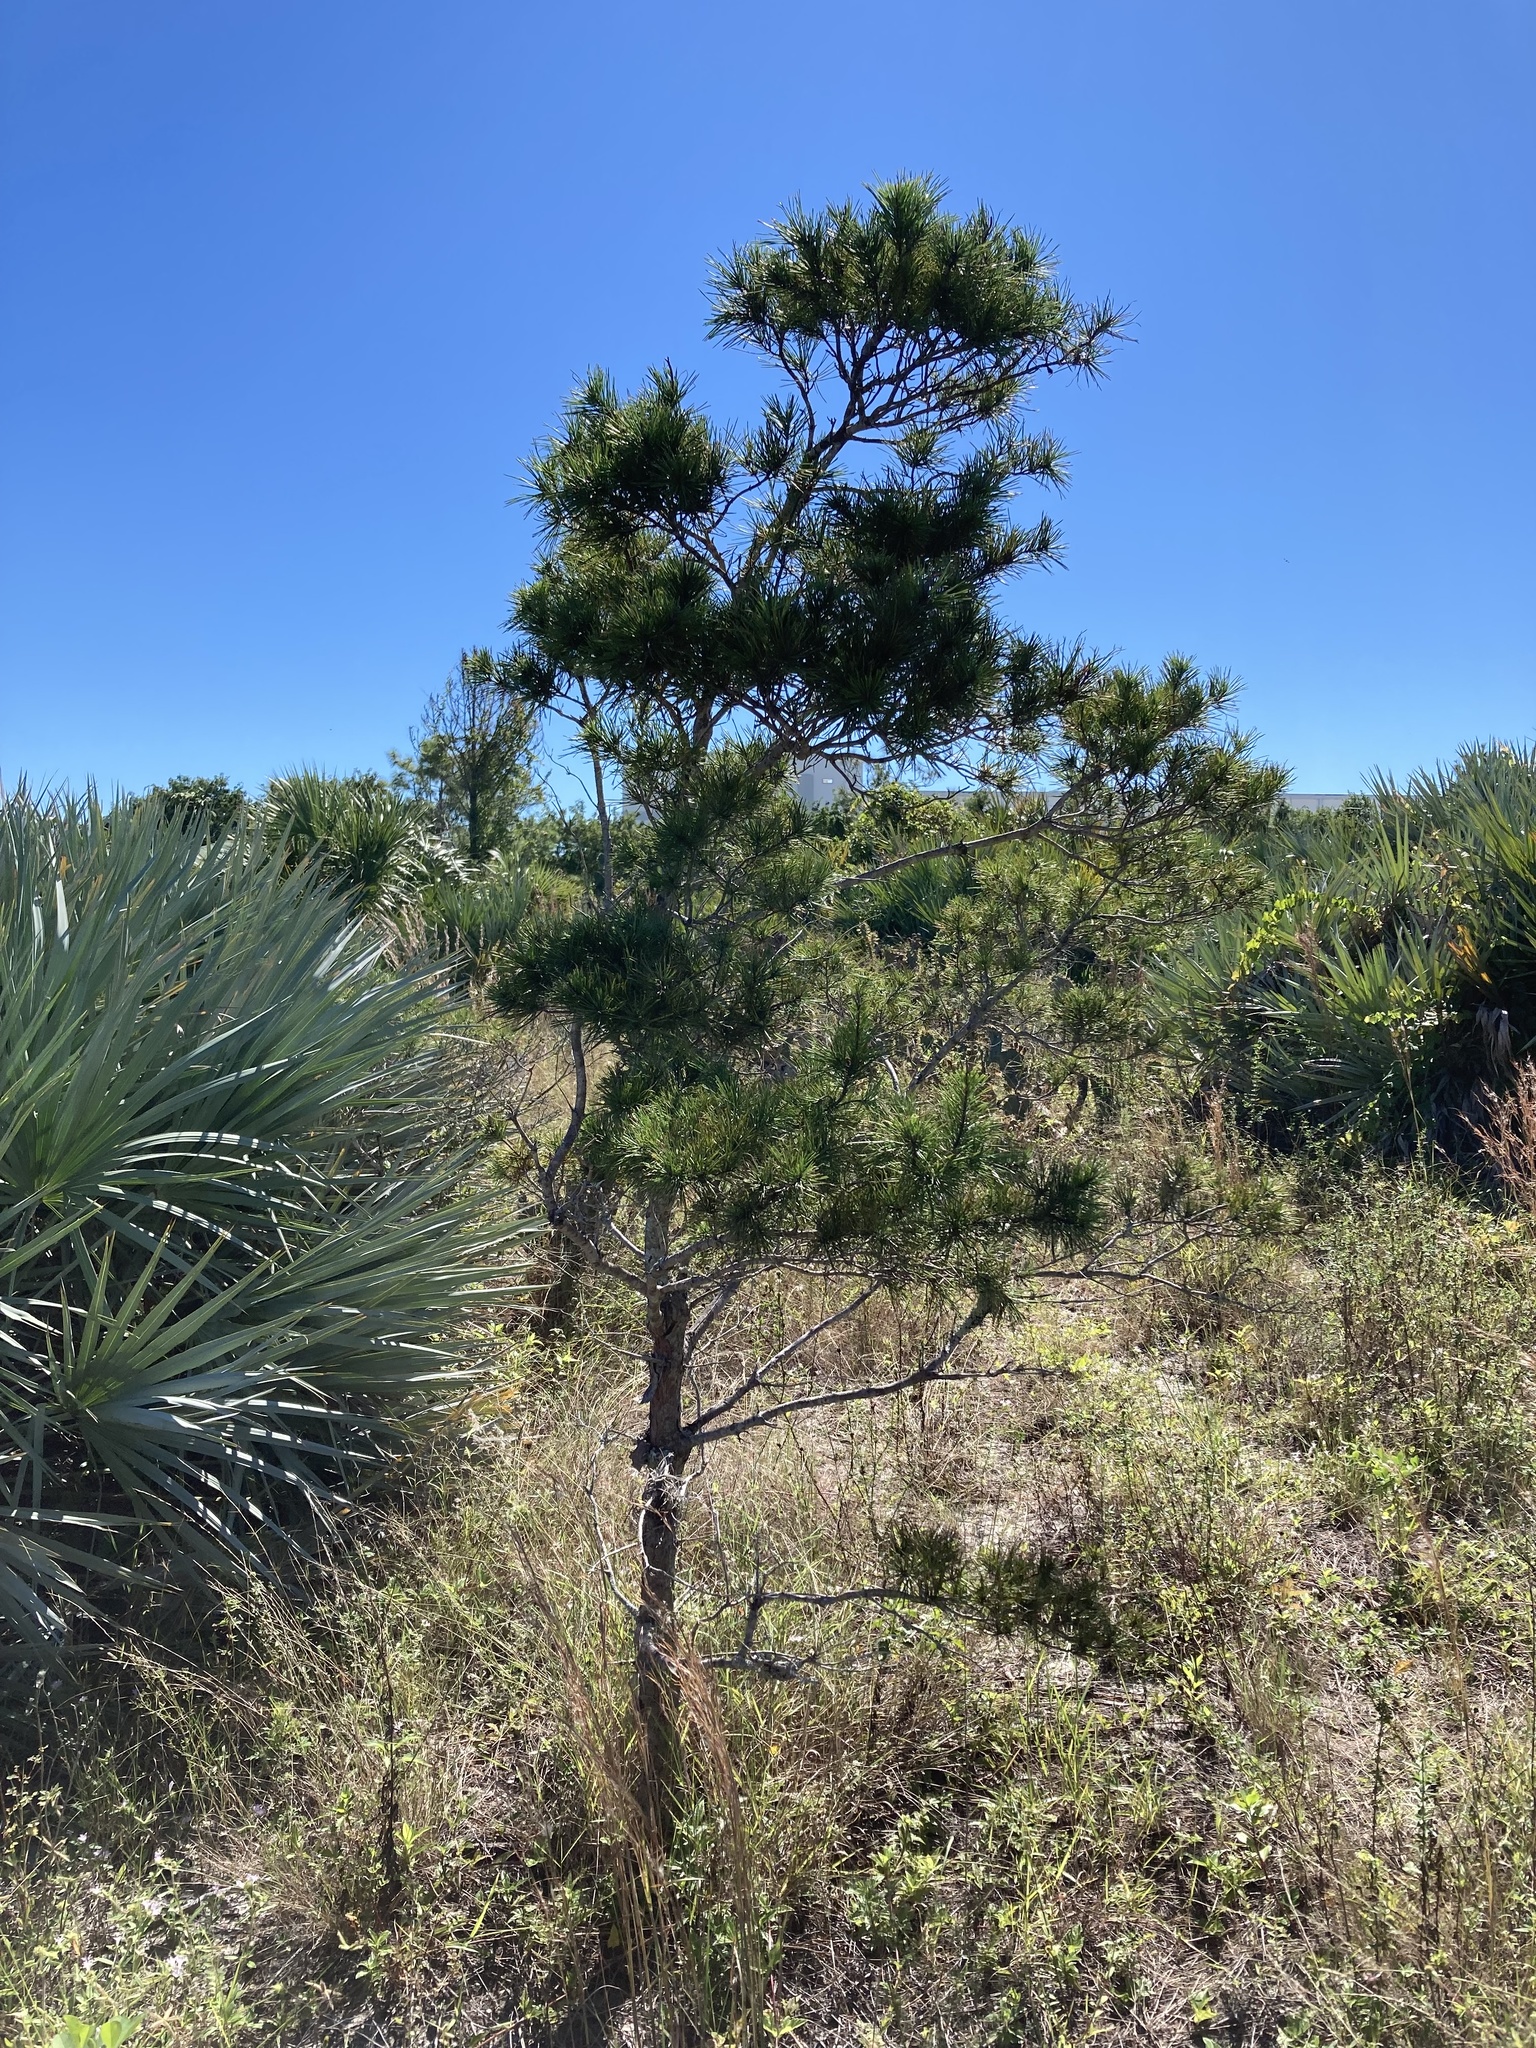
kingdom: Plantae
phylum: Tracheophyta
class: Pinopsida
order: Pinales
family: Pinaceae
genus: Pinus
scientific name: Pinus clausa
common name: Sand pine
